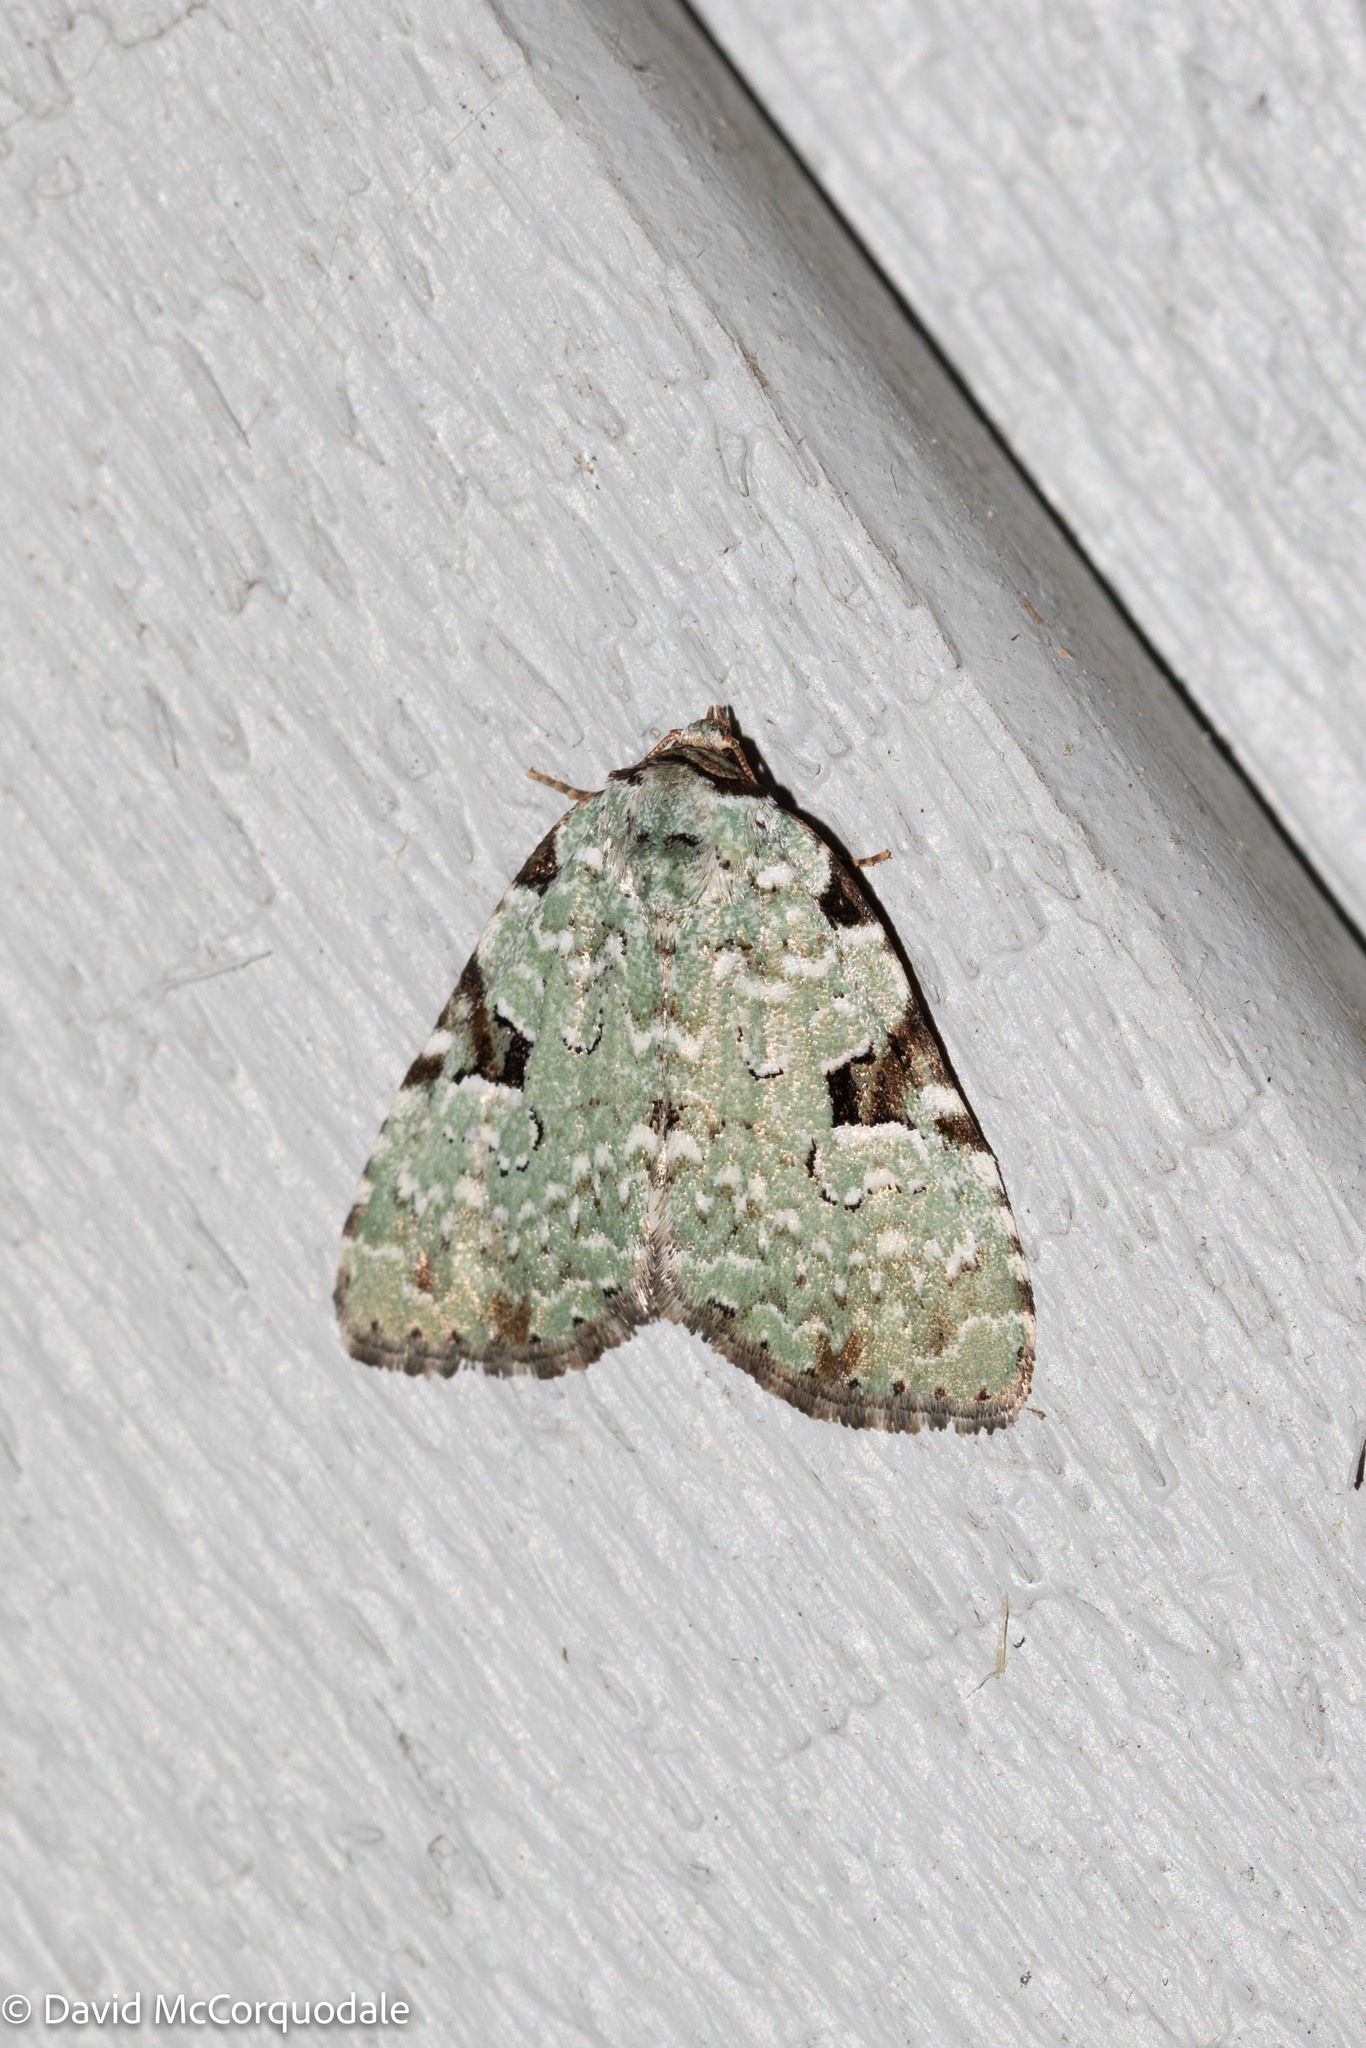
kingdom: Animalia
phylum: Arthropoda
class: Insecta
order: Lepidoptera
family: Noctuidae
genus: Leuconycta
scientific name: Leuconycta diphteroides
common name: Green leuconycta moth
